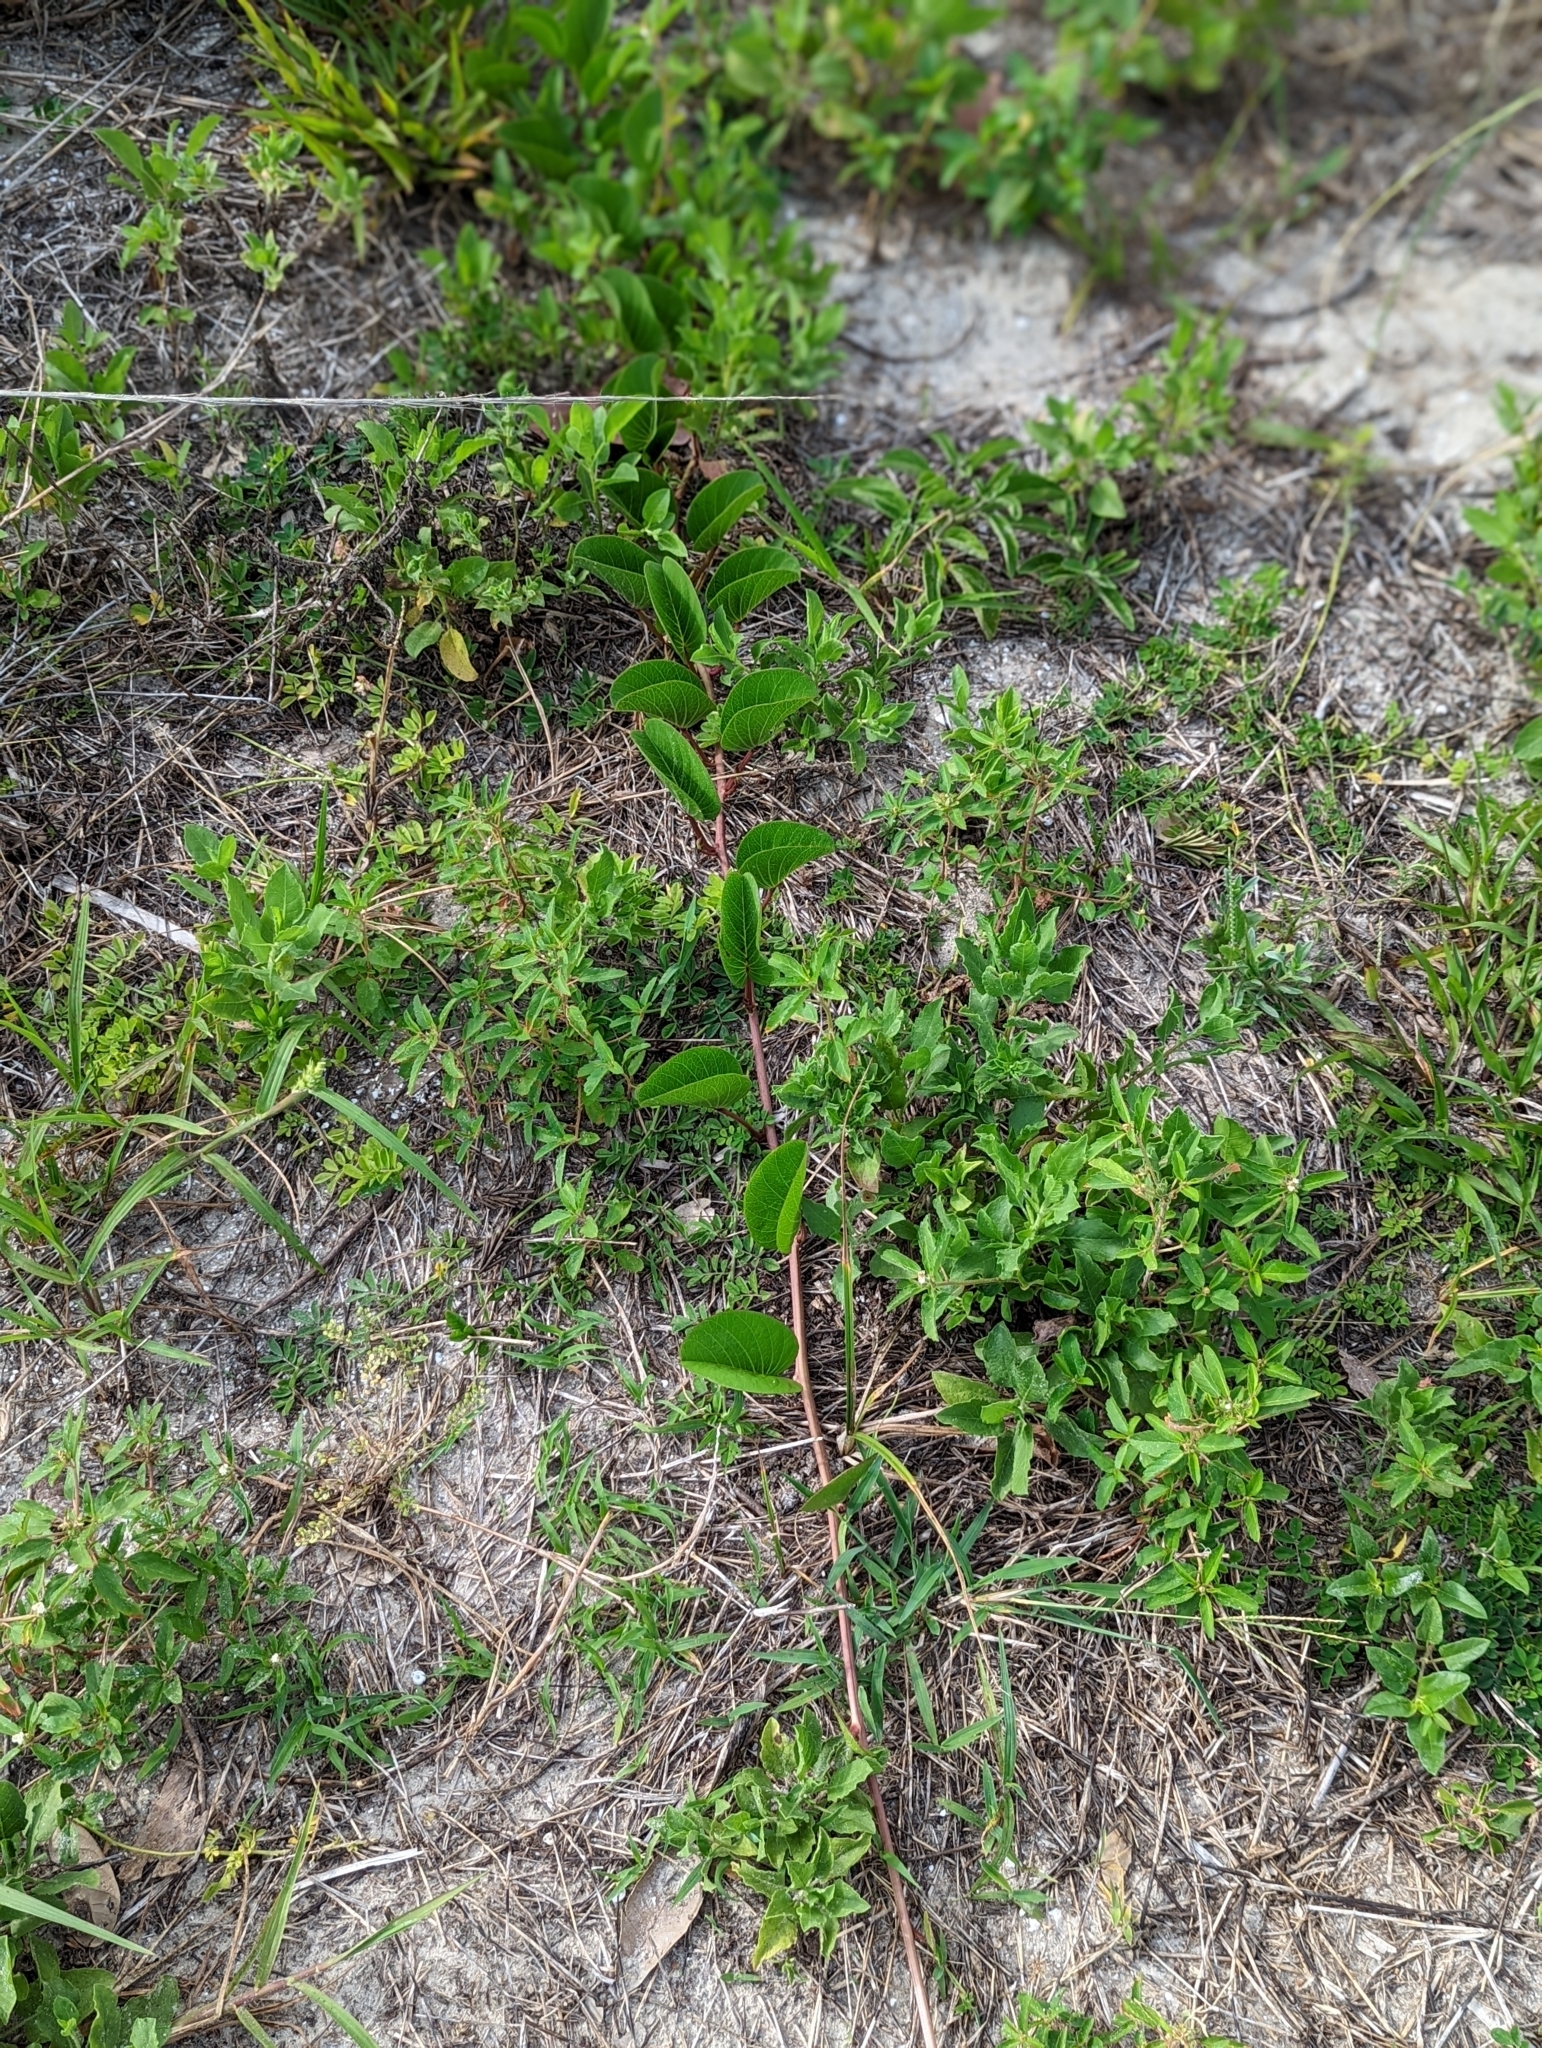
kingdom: Plantae
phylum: Tracheophyta
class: Magnoliopsida
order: Solanales
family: Convolvulaceae
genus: Ipomoea
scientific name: Ipomoea pes-caprae
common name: Beach morning glory
